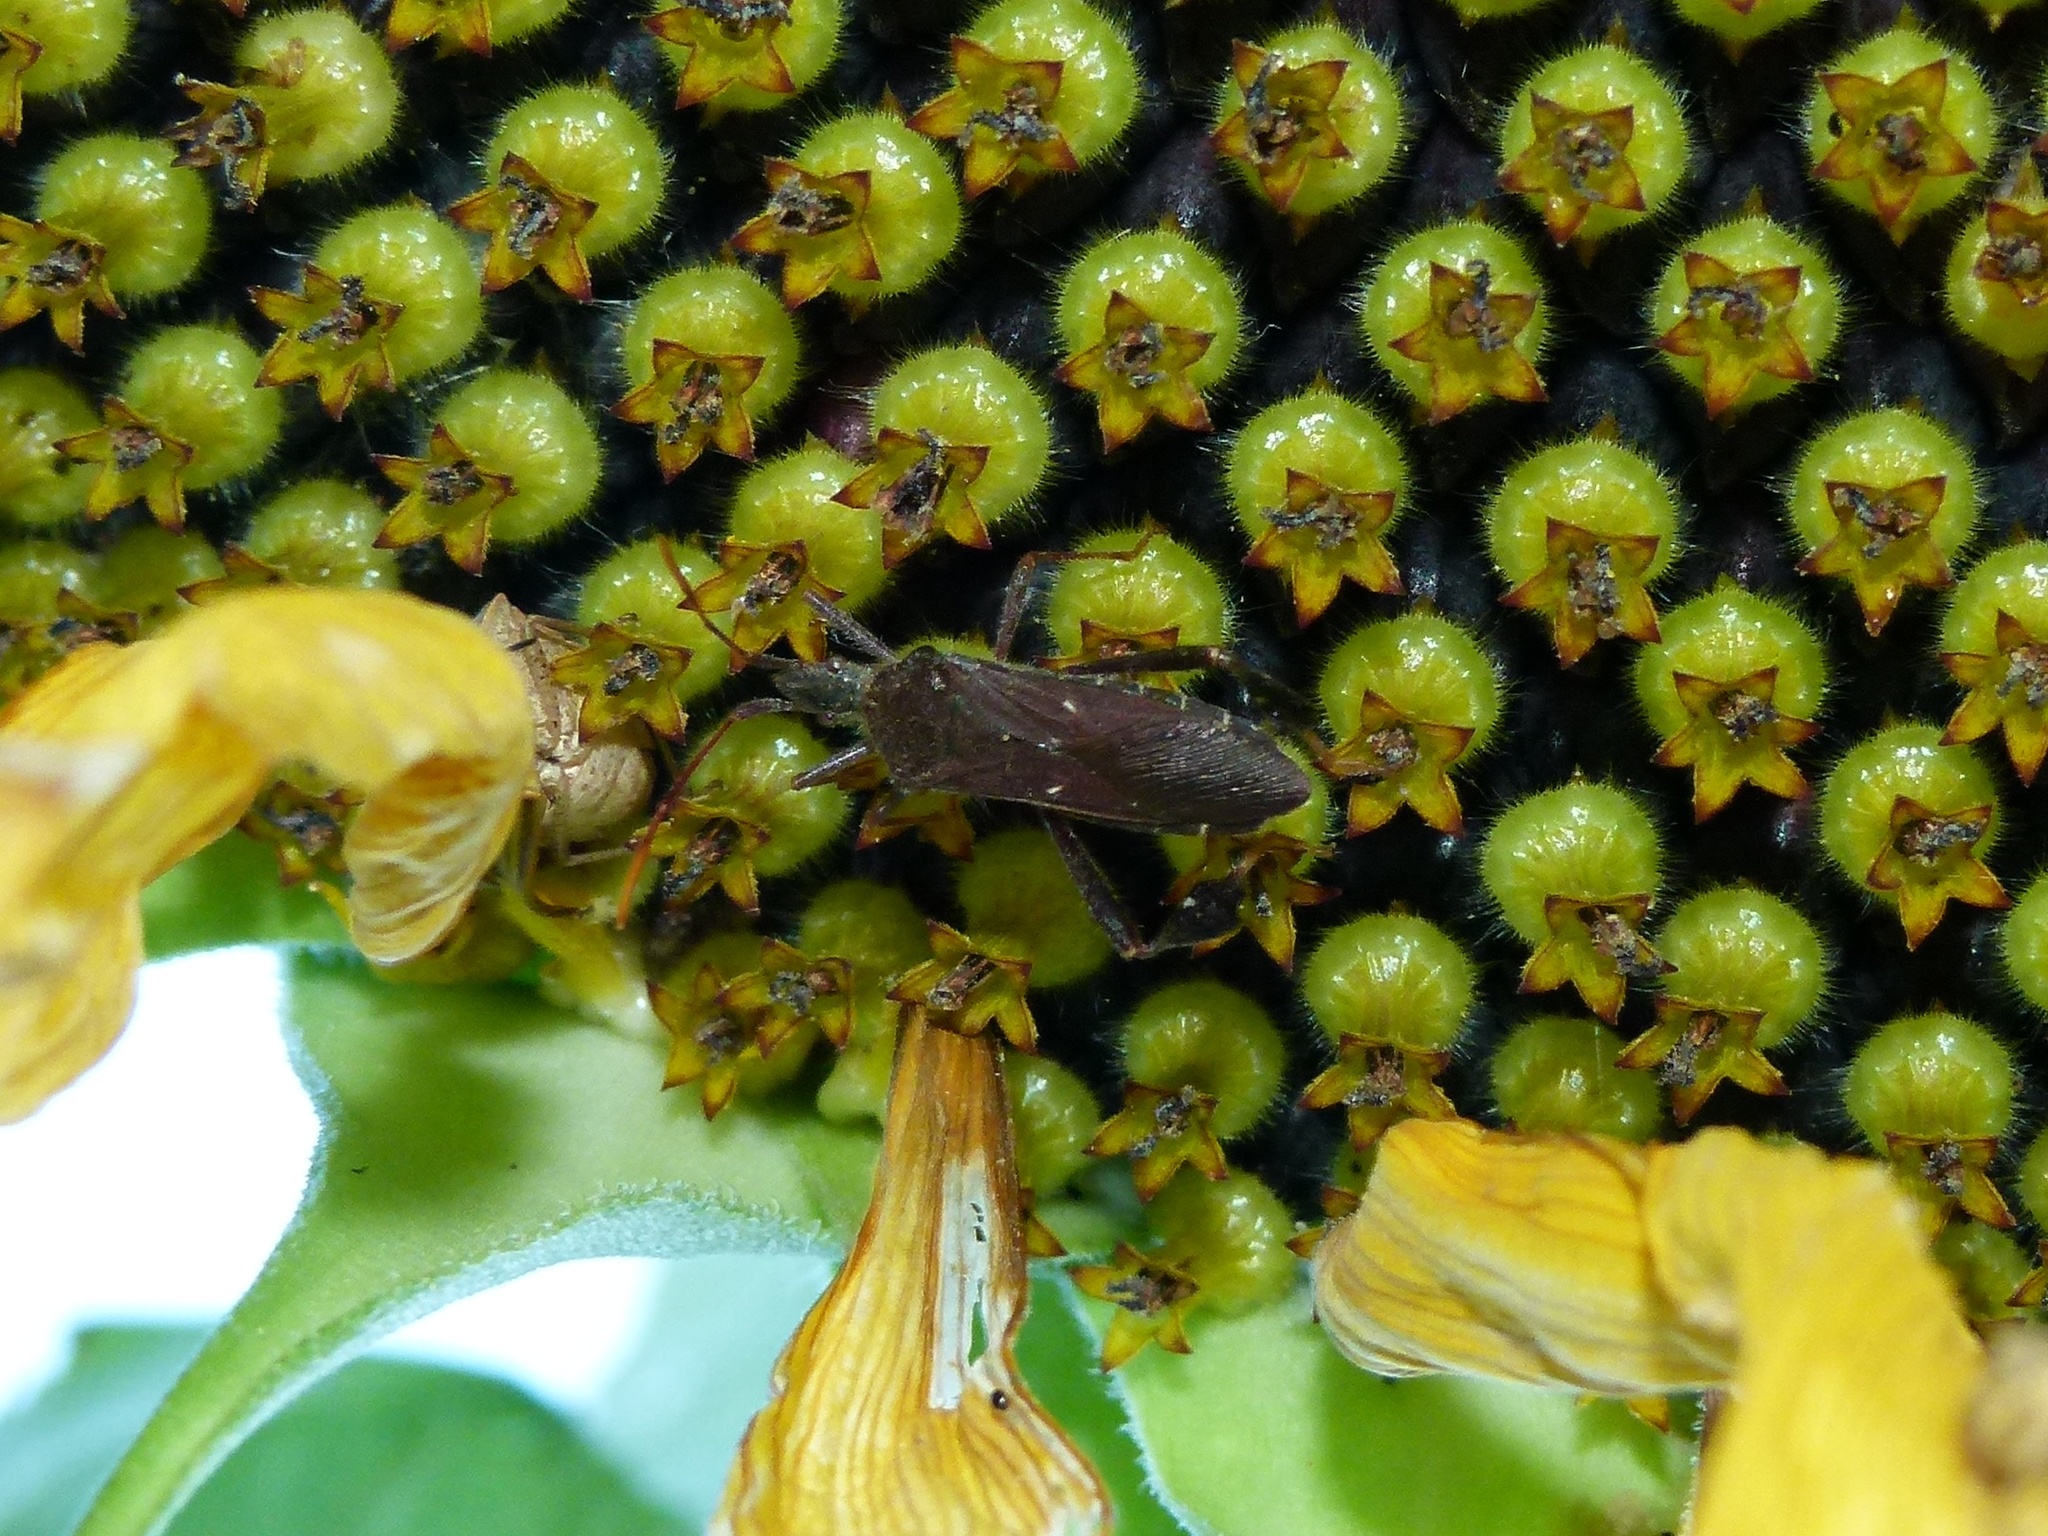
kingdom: Animalia
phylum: Arthropoda
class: Insecta
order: Hemiptera
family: Coreidae
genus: Leptoglossus
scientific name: Leptoglossus oppositus
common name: Northern leaf-footed bug
